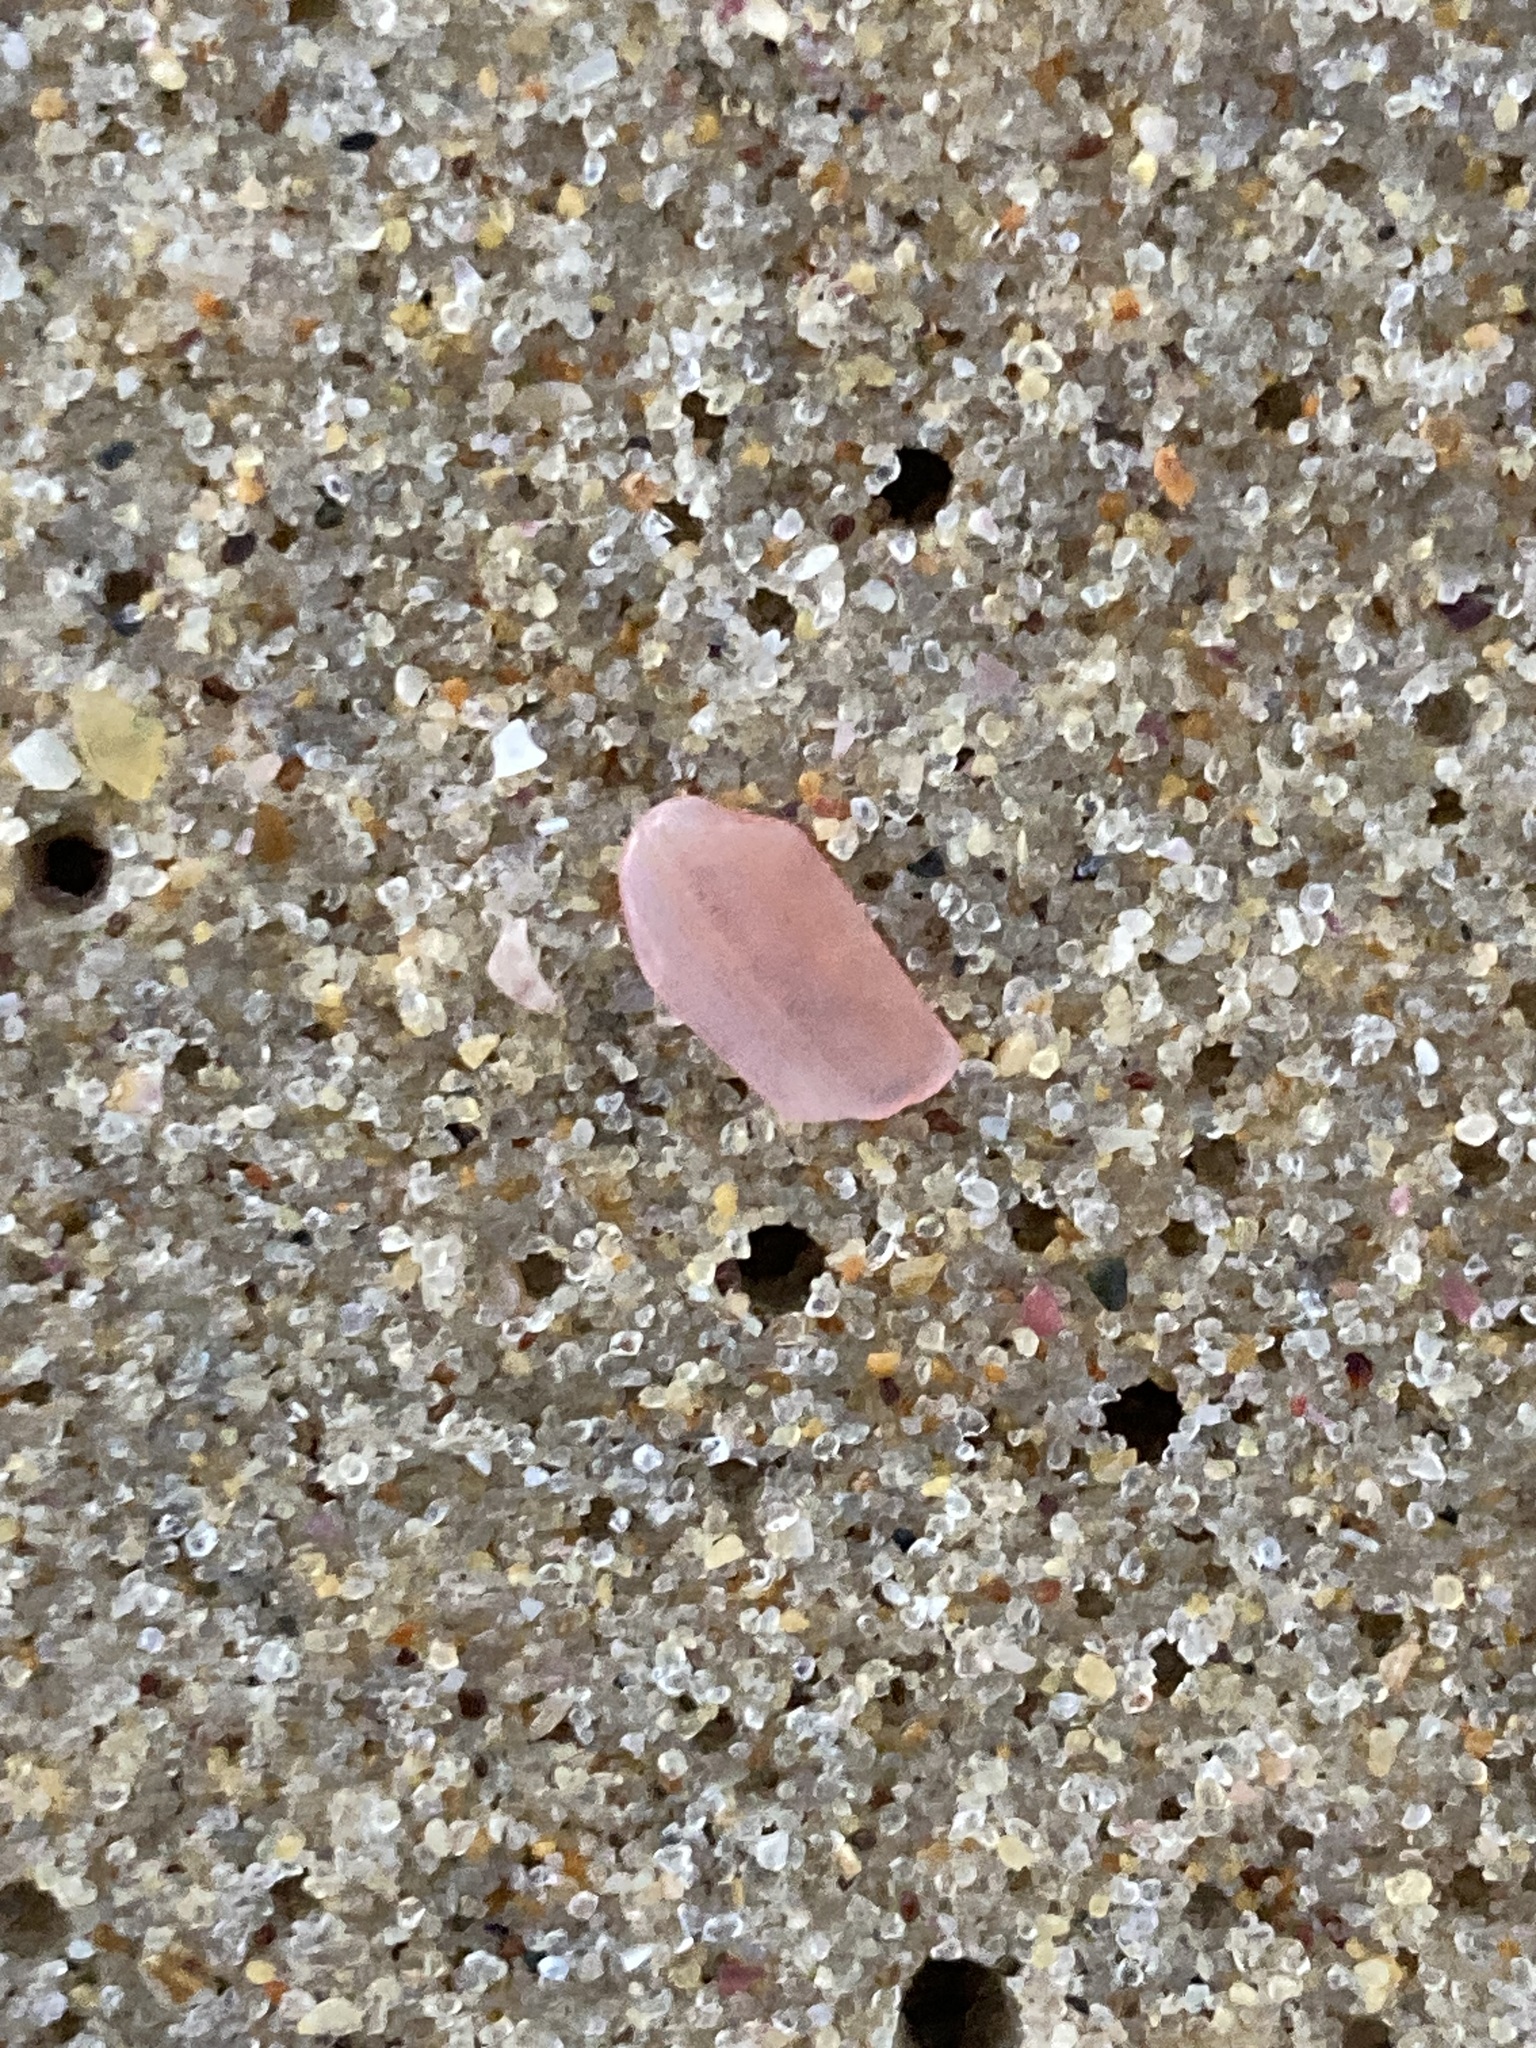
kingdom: Animalia
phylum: Mollusca
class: Bivalvia
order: Cardiida
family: Tellinidae
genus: Tellinota
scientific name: Tellinota albinella
